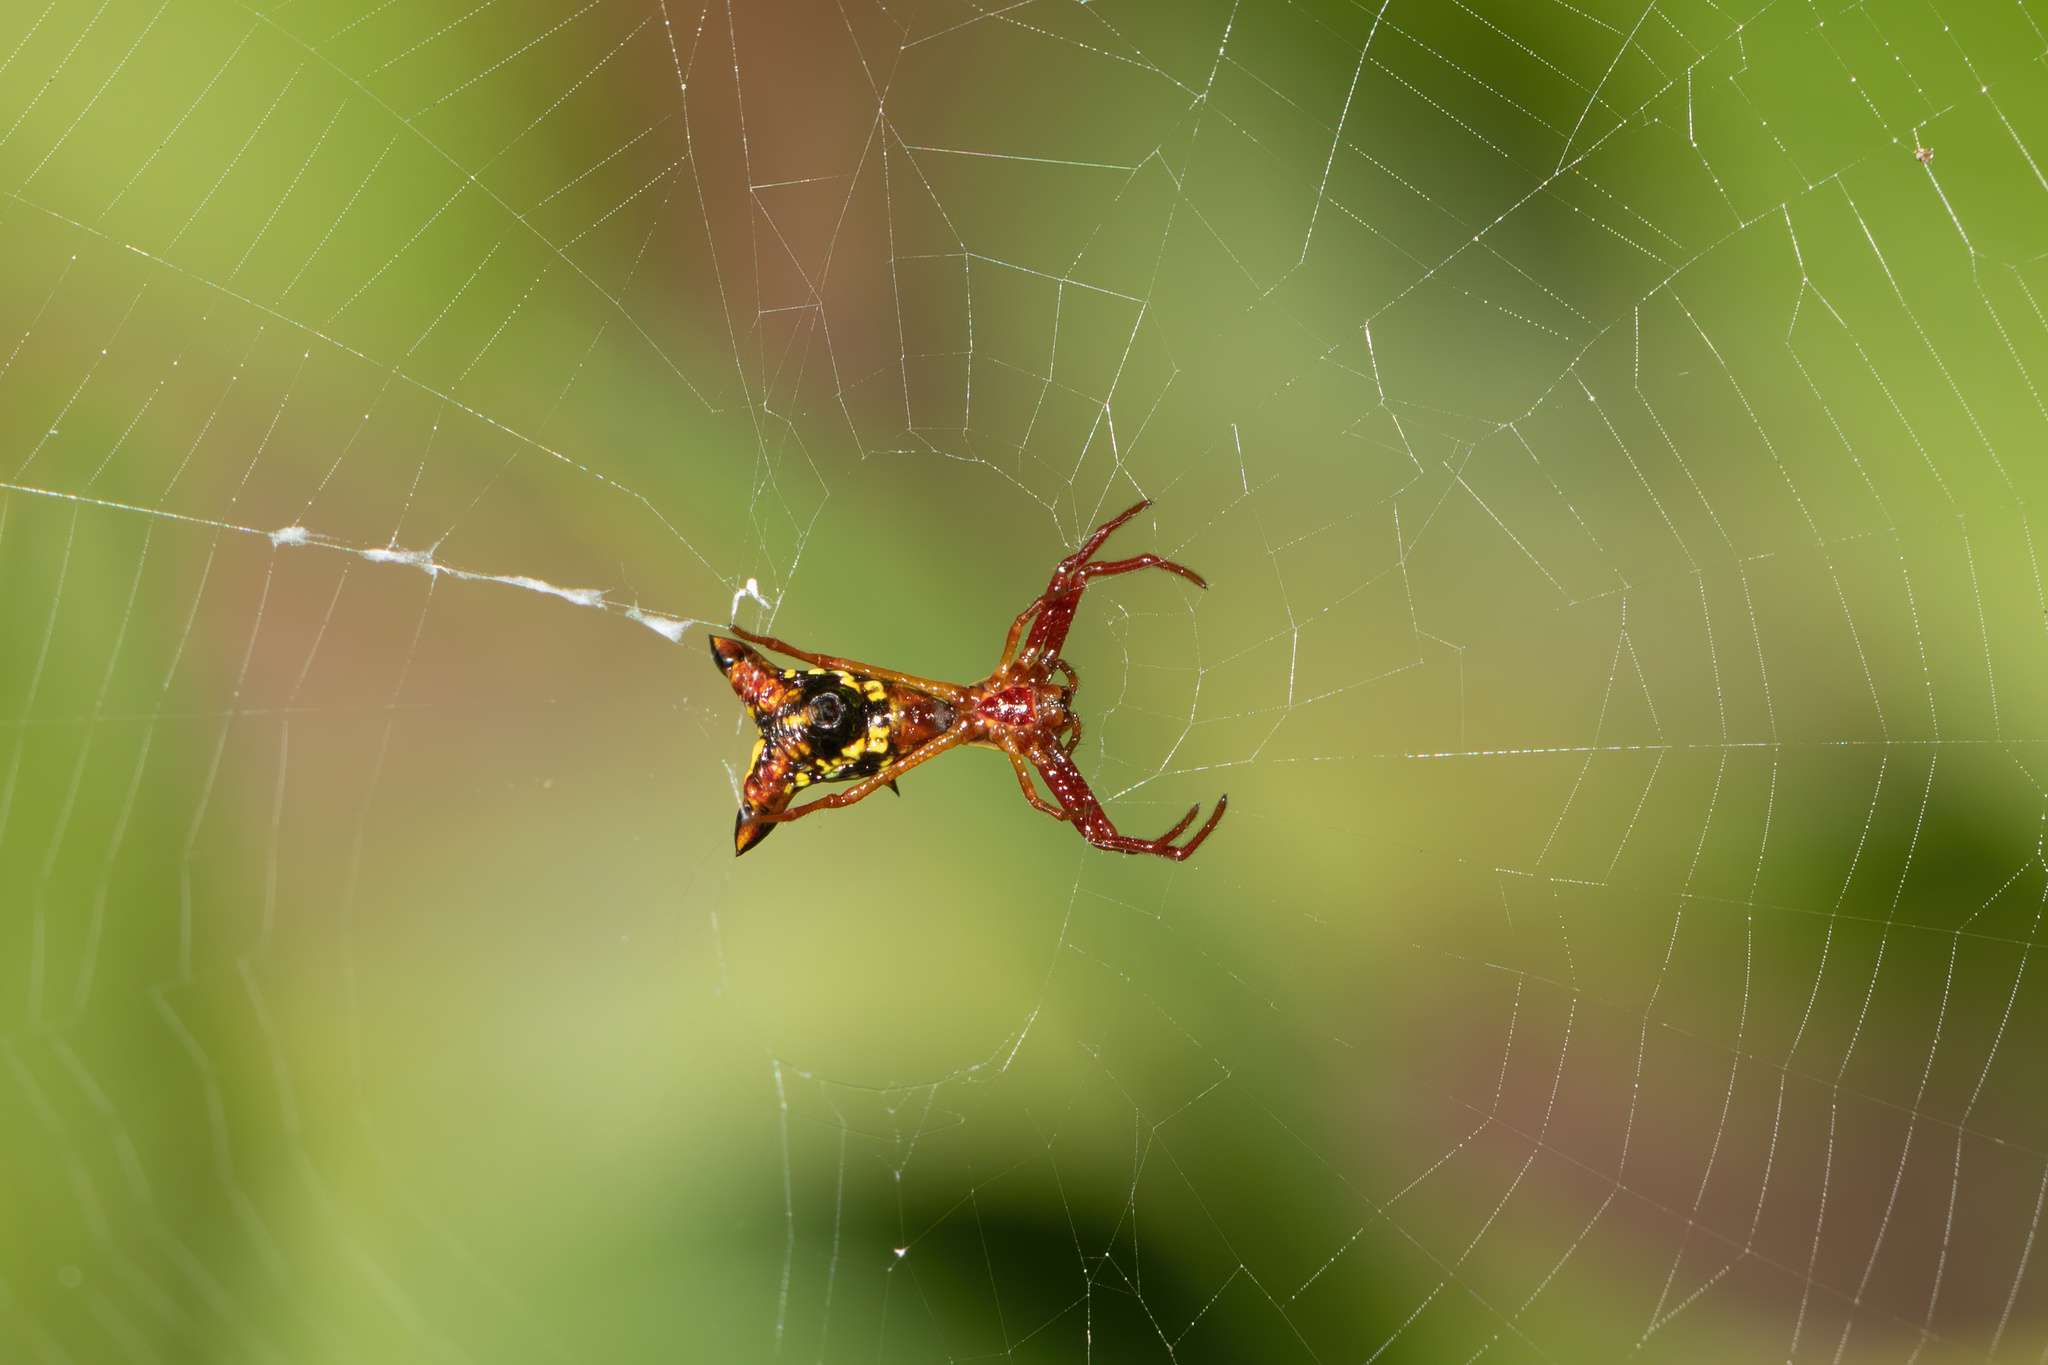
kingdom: Animalia
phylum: Arthropoda
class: Arachnida
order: Araneae
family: Araneidae
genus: Micrathena
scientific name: Micrathena sagittata
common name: Orb weavers
